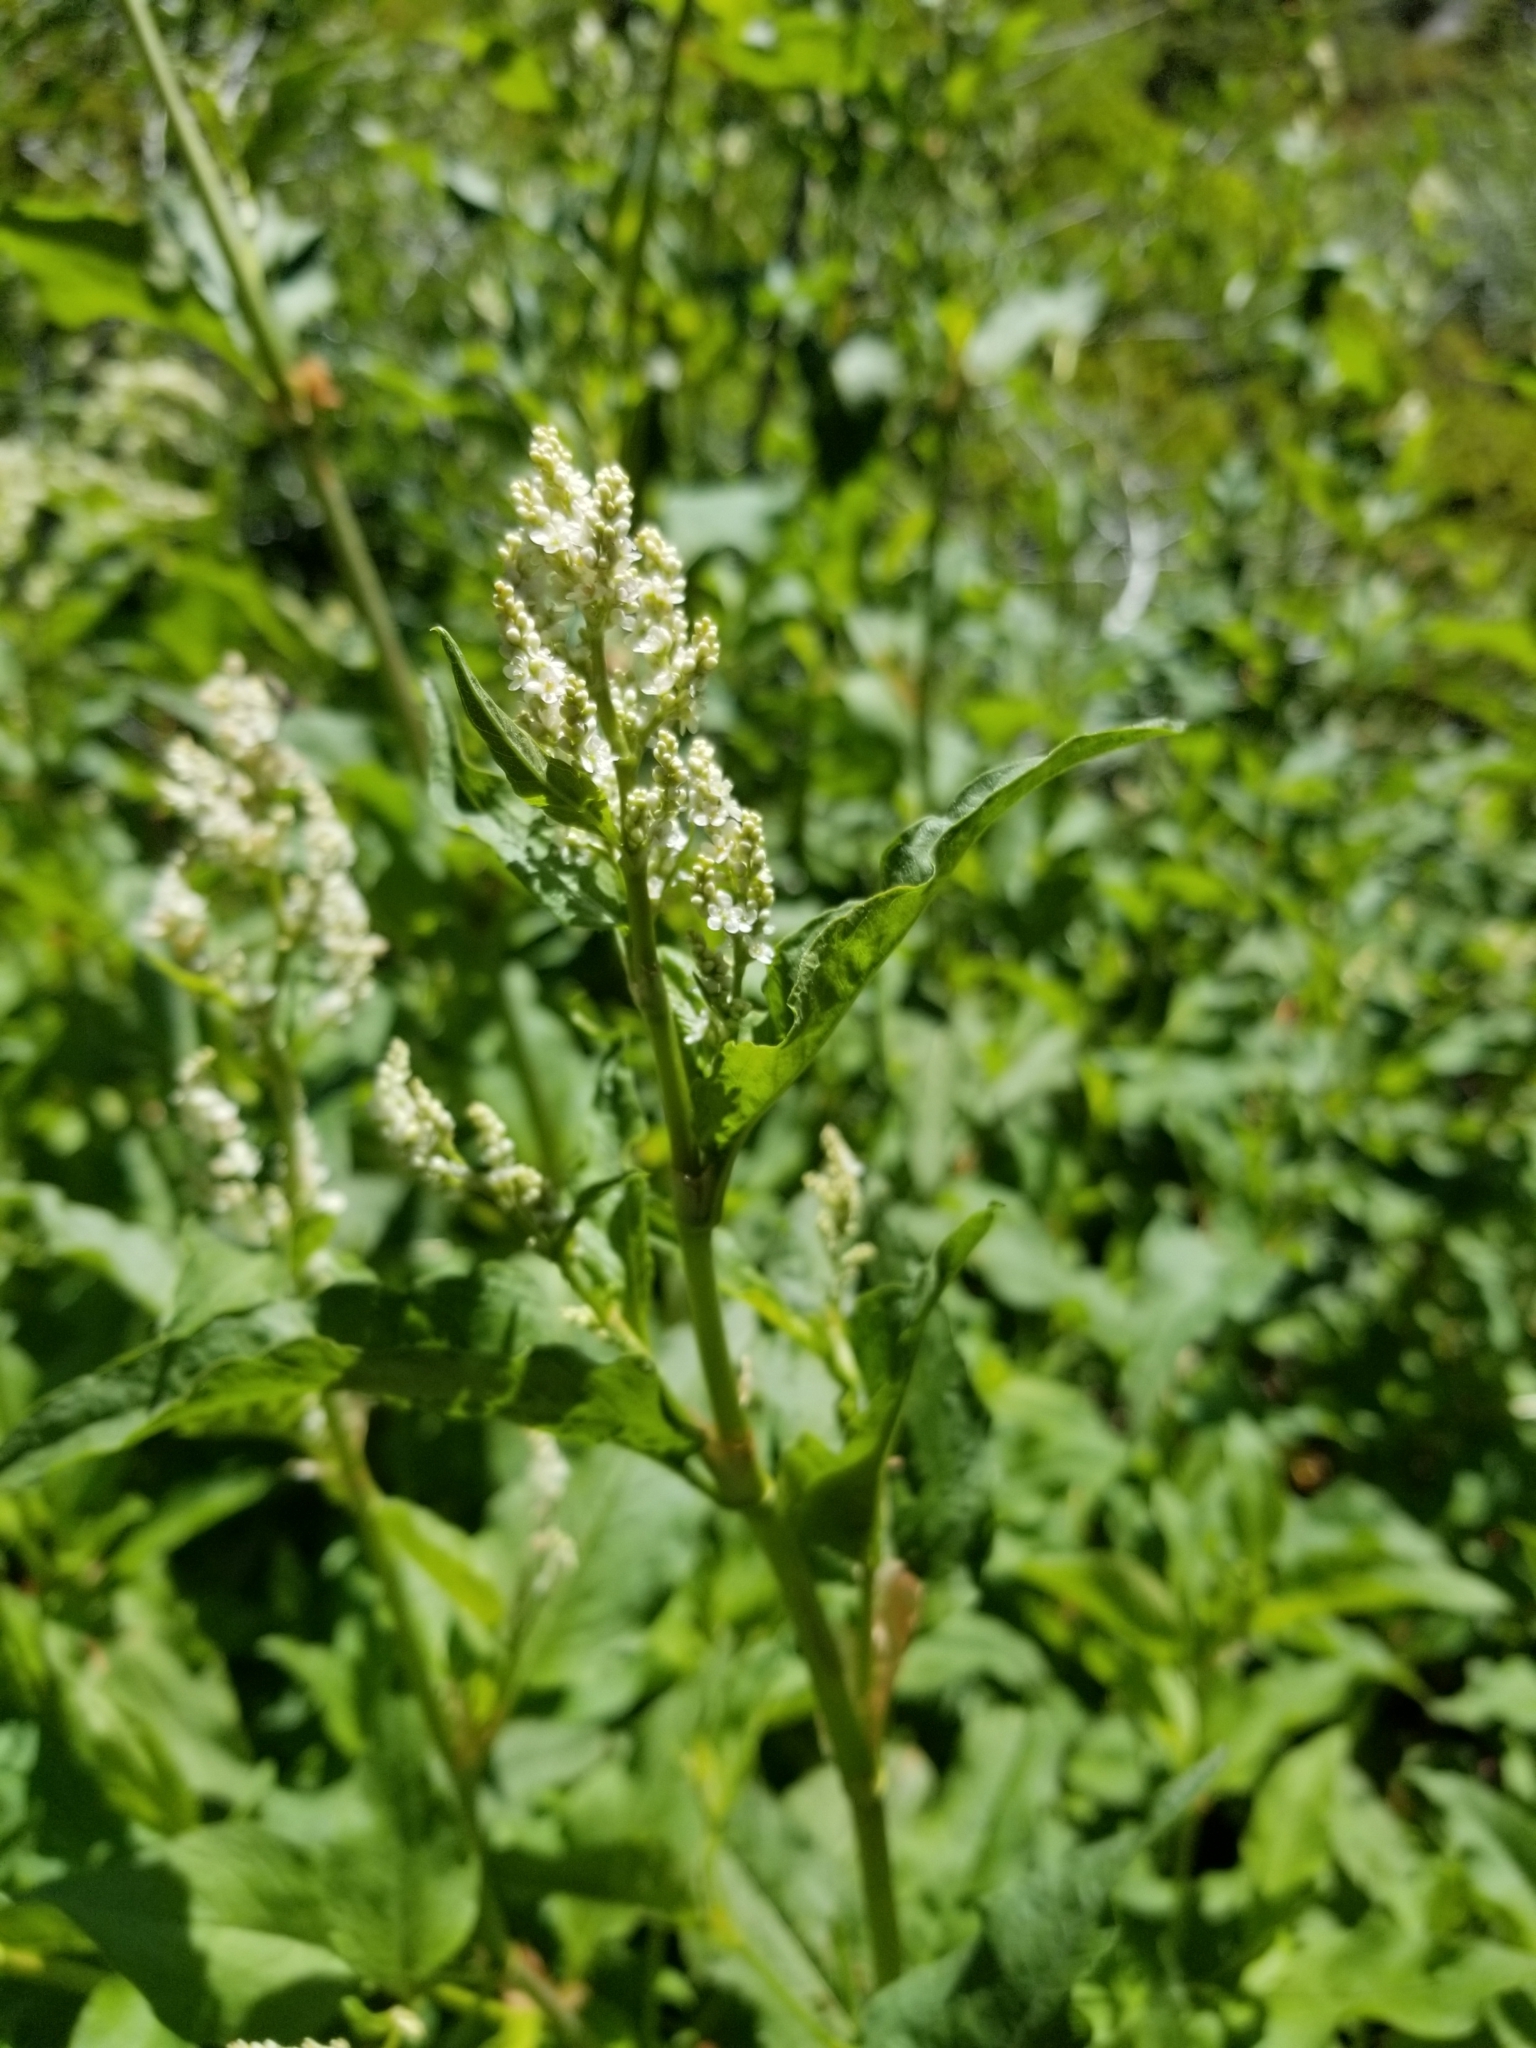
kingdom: Plantae
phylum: Tracheophyta
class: Magnoliopsida
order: Caryophyllales
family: Polygonaceae
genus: Koenigia
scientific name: Koenigia phytolaccifolia
